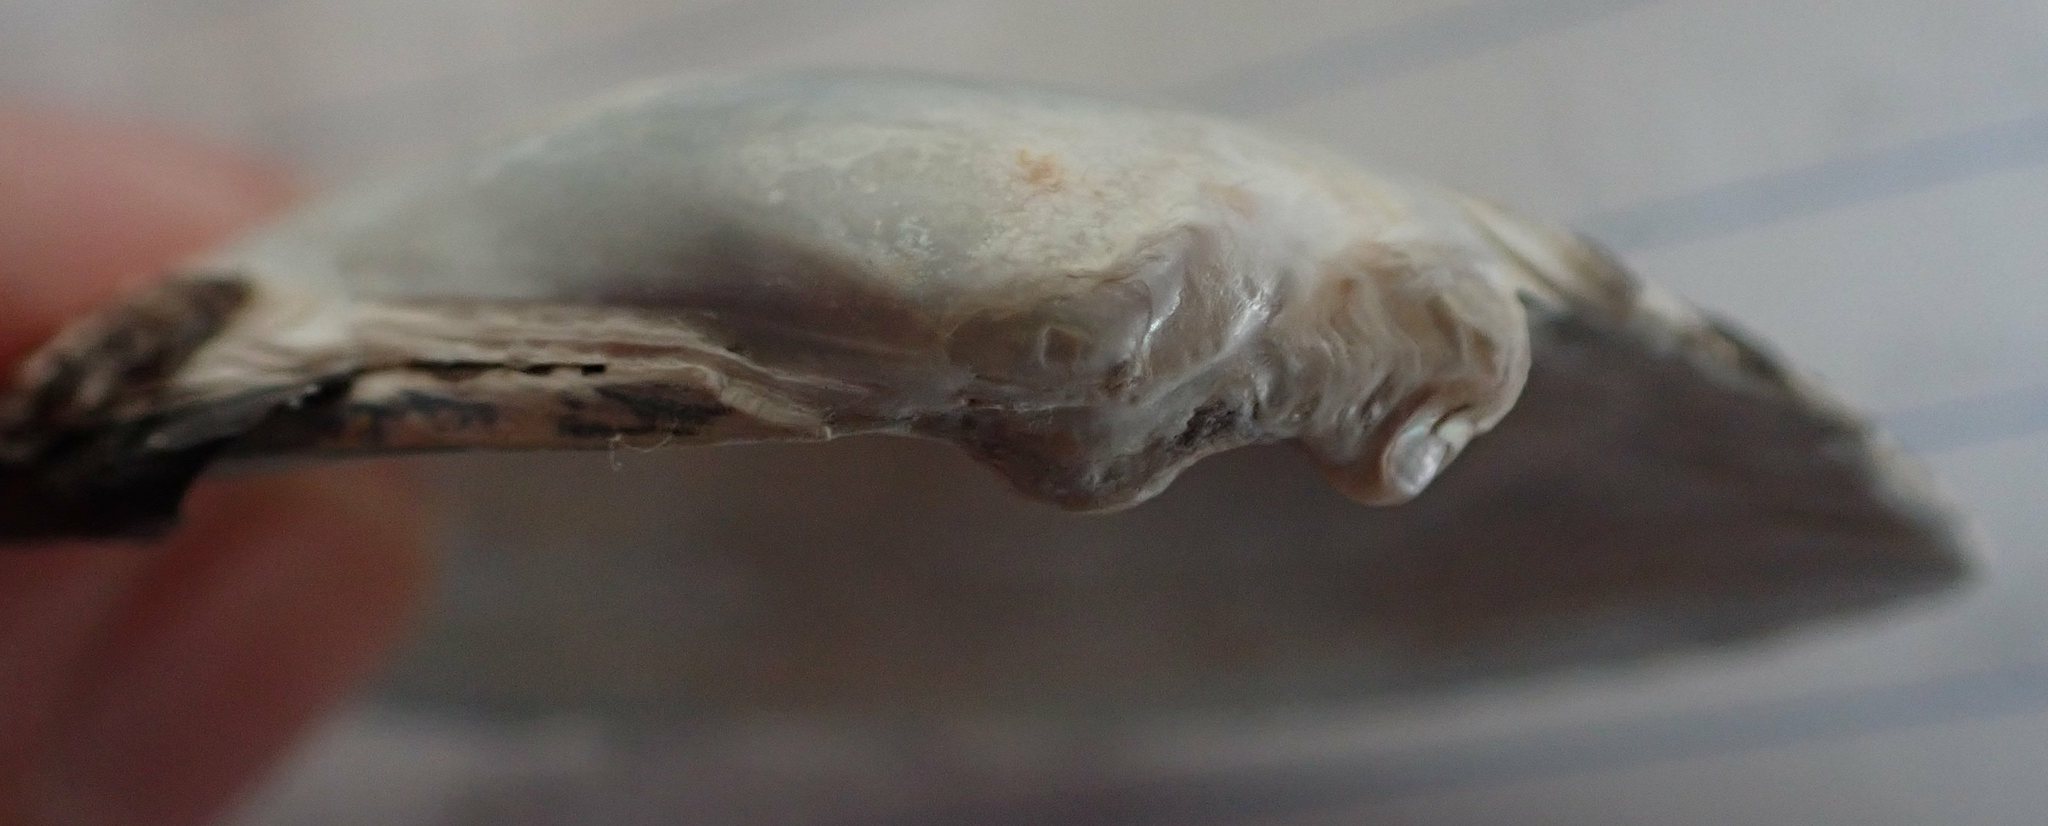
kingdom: Animalia
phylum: Mollusca
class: Bivalvia
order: Unionida
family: Unionidae
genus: Lampsilis
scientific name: Lampsilis siliquoidea
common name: Fatmucket
